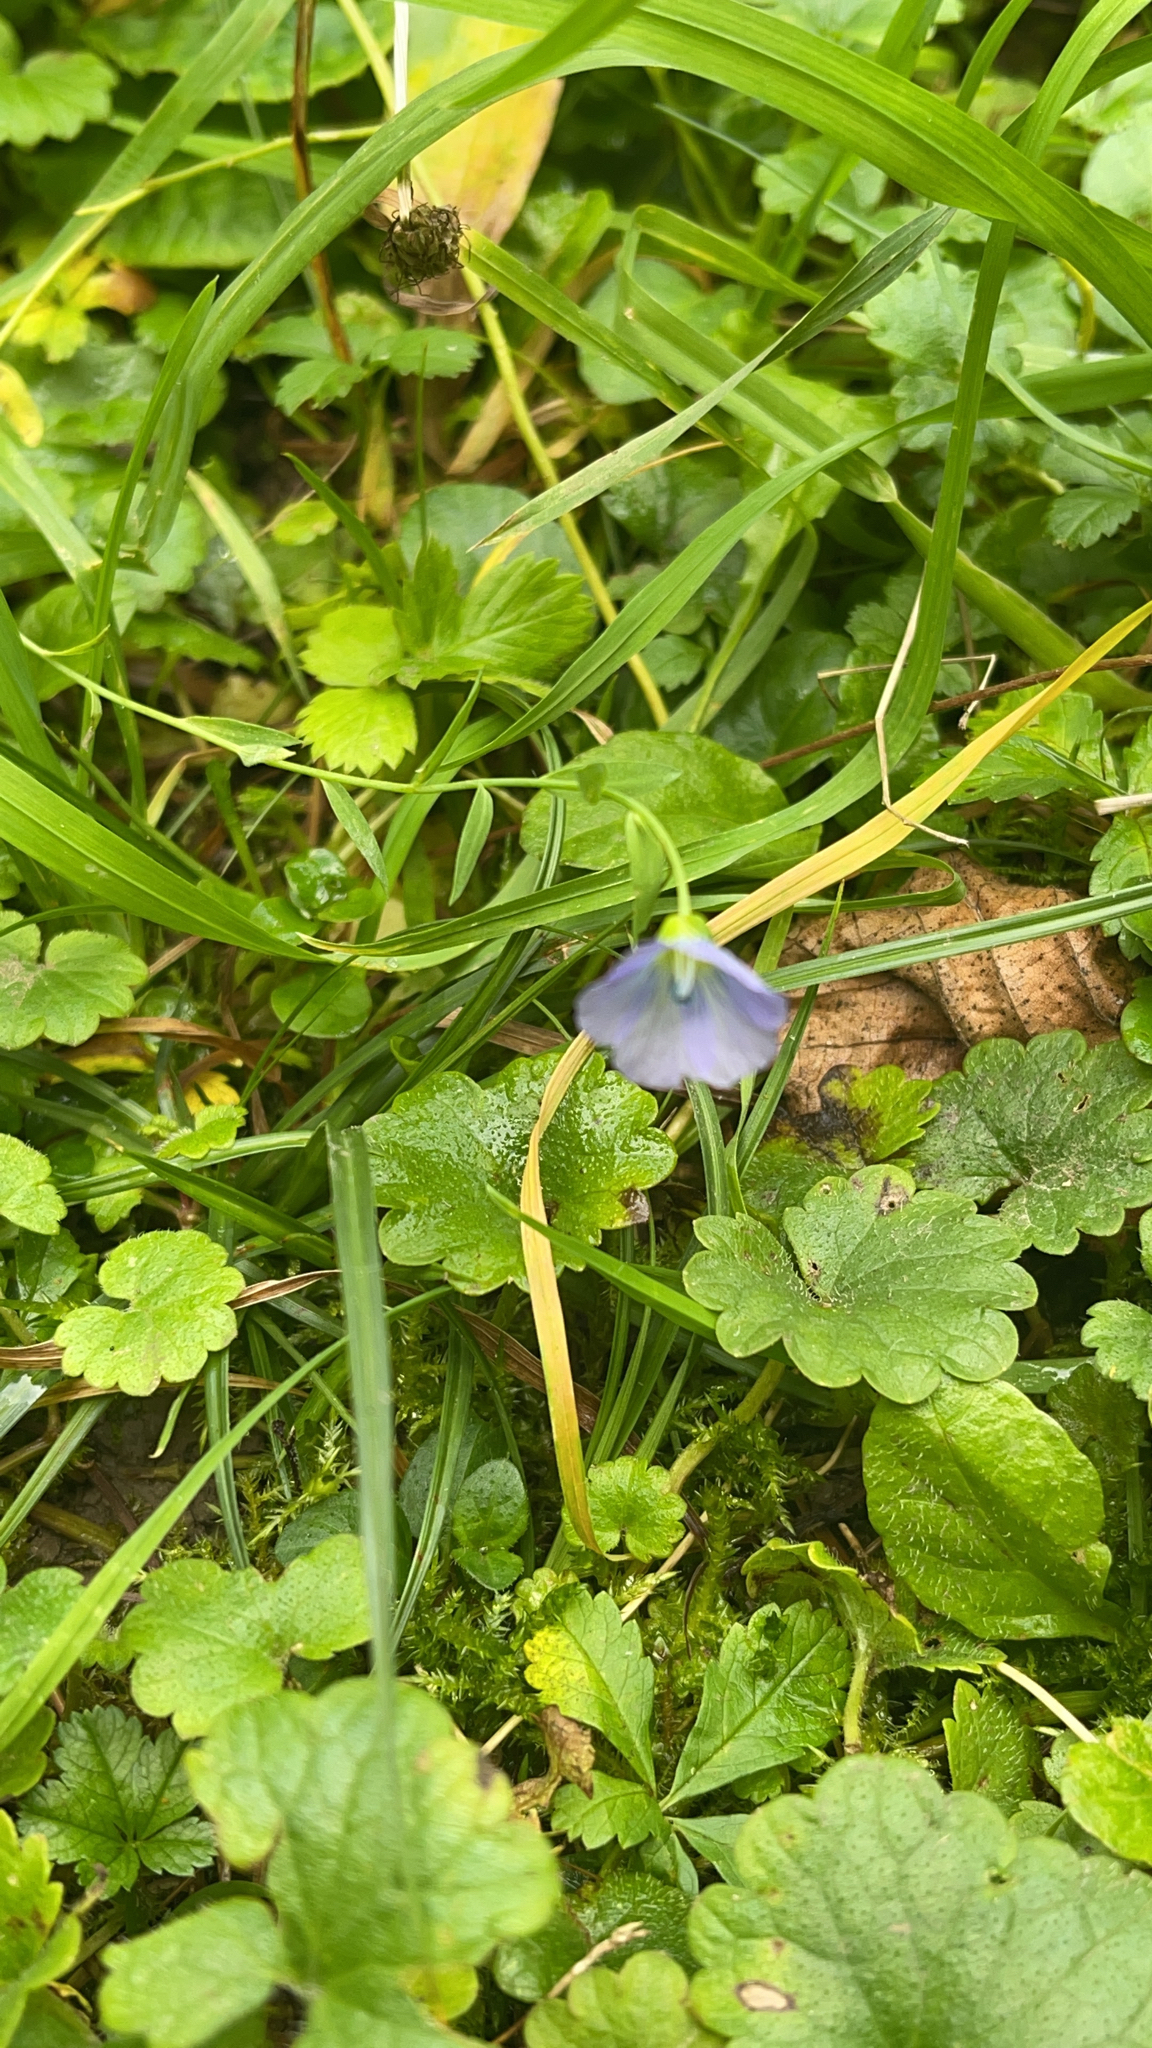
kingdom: Plantae
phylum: Tracheophyta
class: Magnoliopsida
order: Malpighiales
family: Linaceae
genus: Linum
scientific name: Linum usitatissimum
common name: Flax
